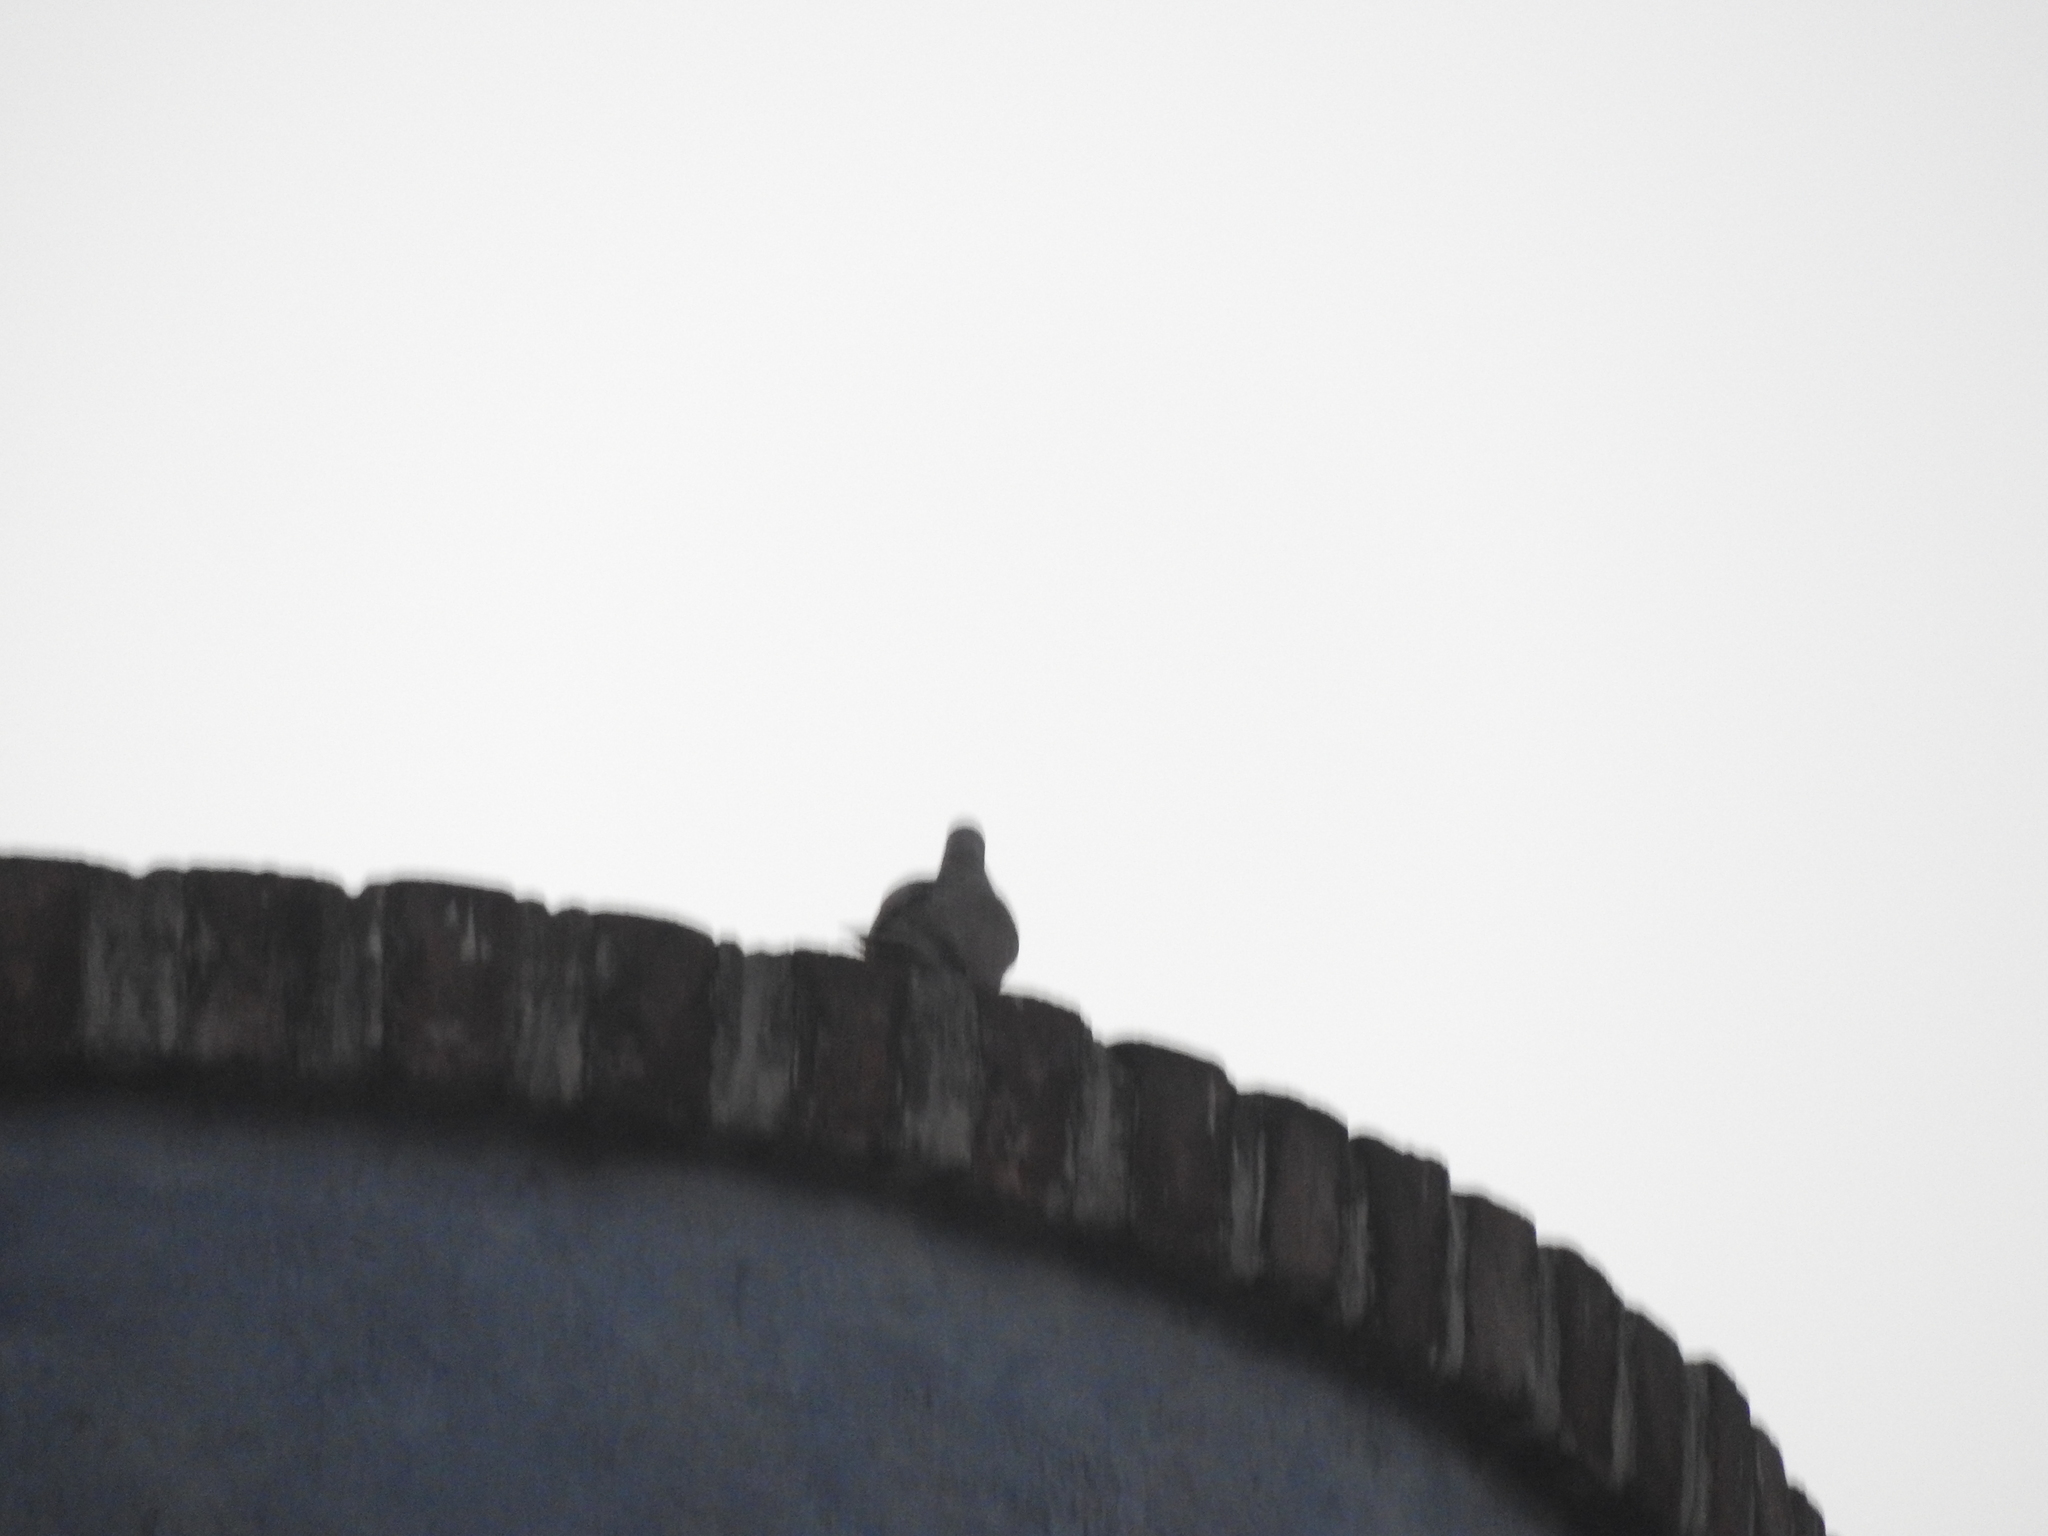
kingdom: Animalia
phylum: Chordata
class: Aves
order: Columbiformes
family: Columbidae
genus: Streptopelia
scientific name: Streptopelia decaocto
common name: Eurasian collared dove
